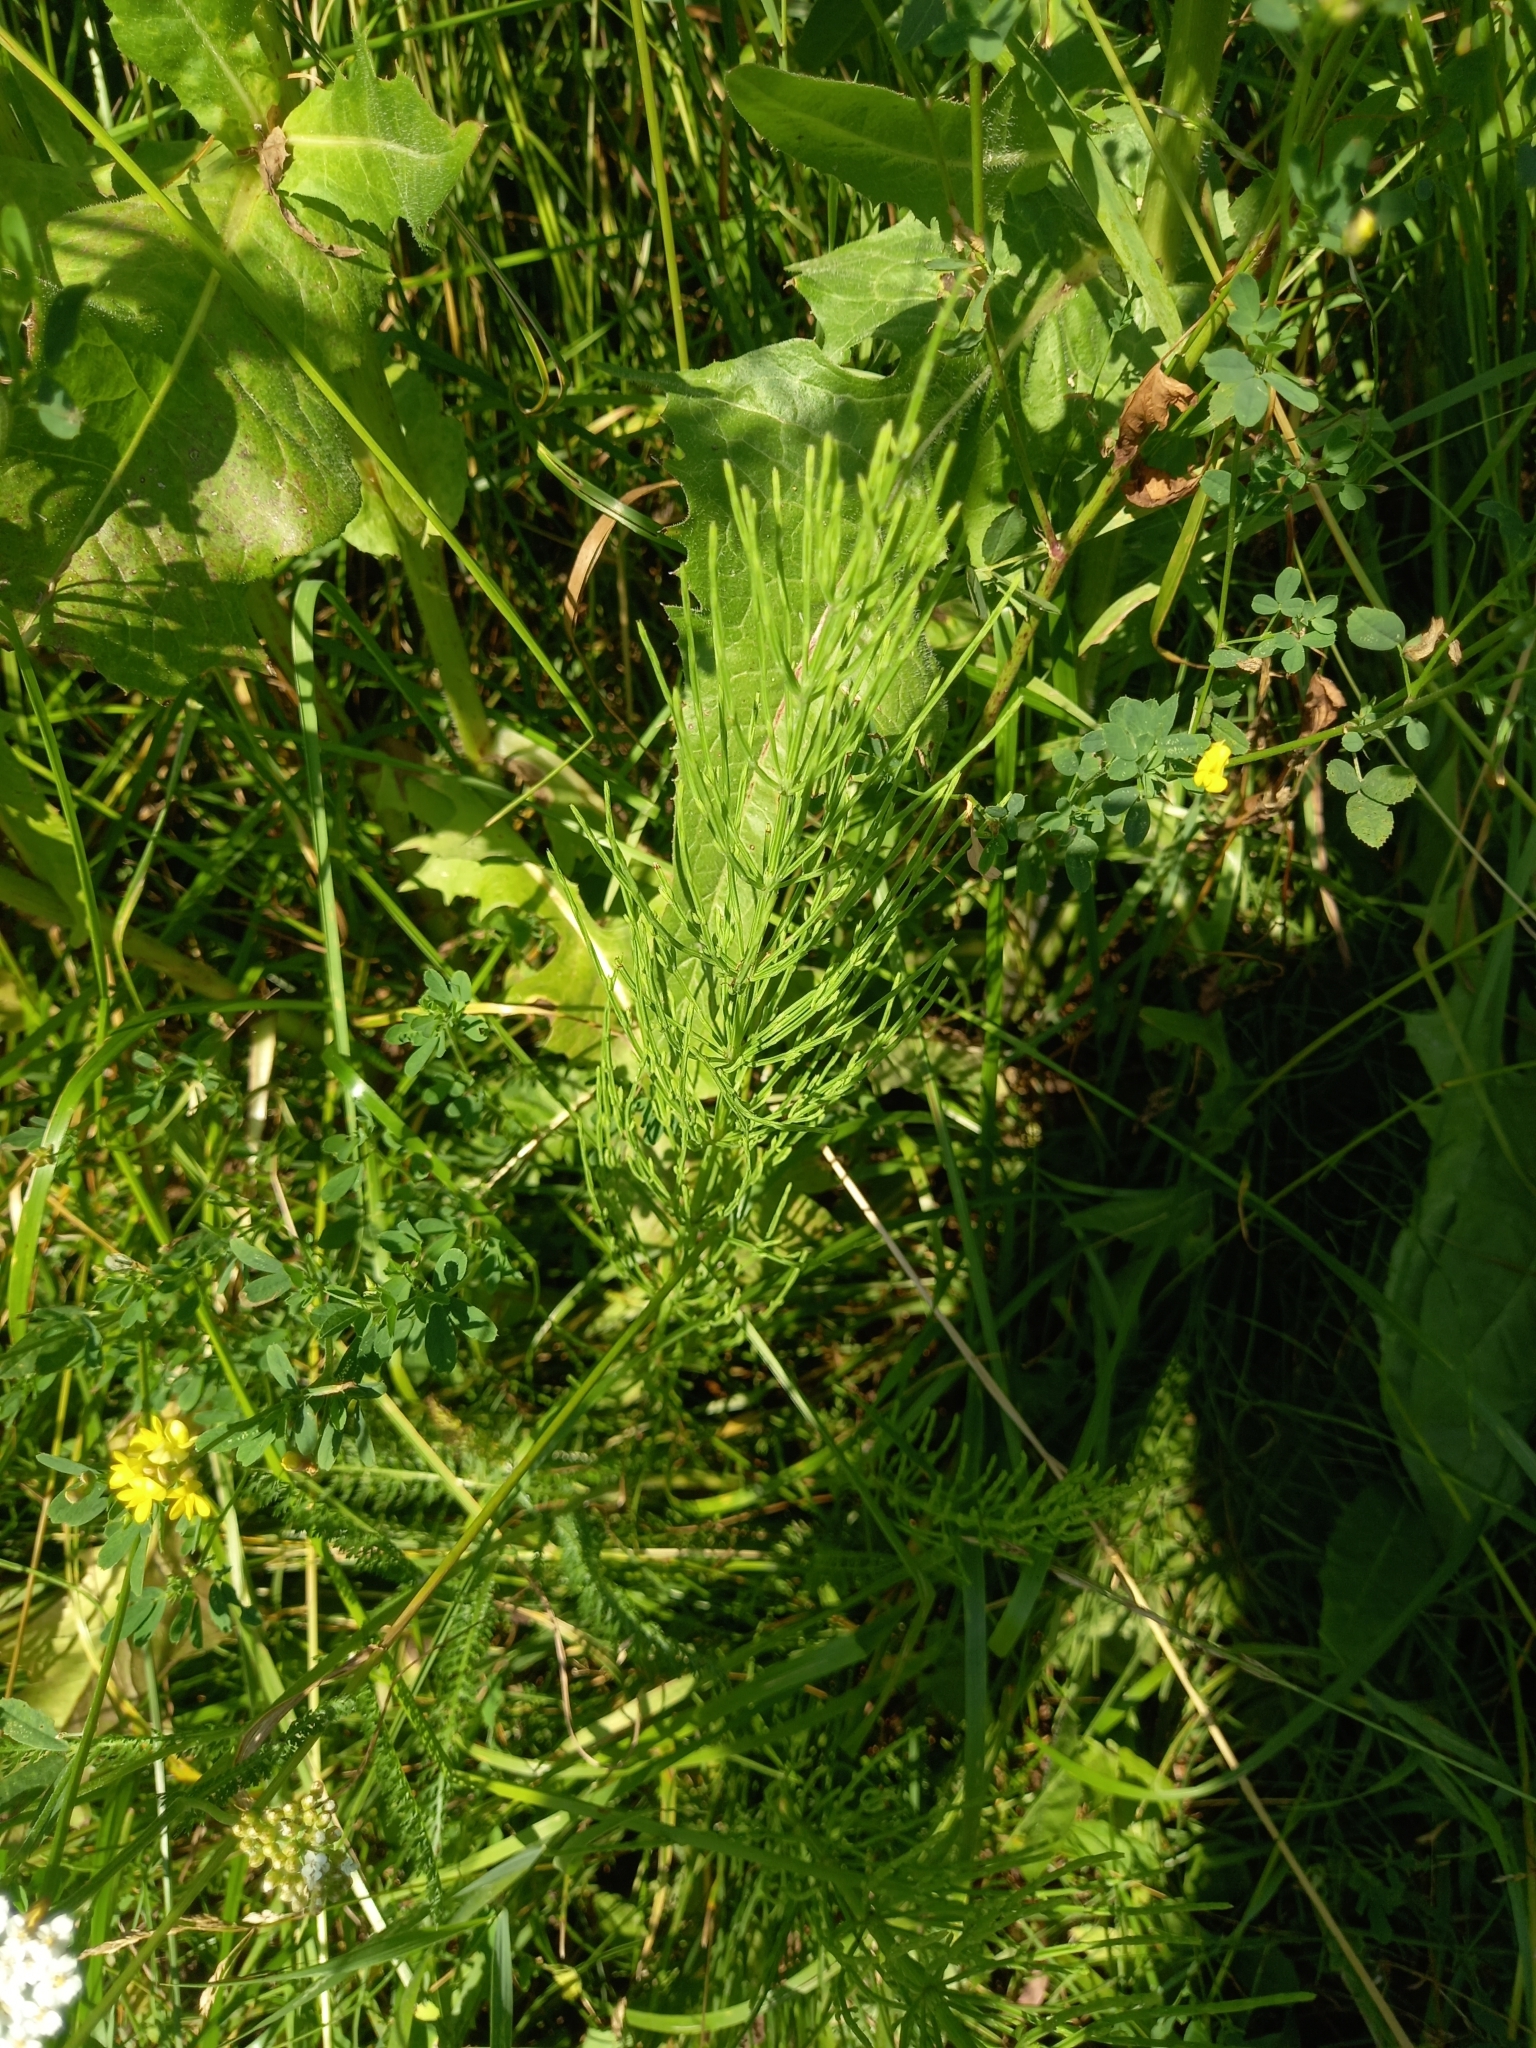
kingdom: Plantae
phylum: Tracheophyta
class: Polypodiopsida
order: Equisetales
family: Equisetaceae
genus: Equisetum
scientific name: Equisetum arvense
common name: Field horsetail
